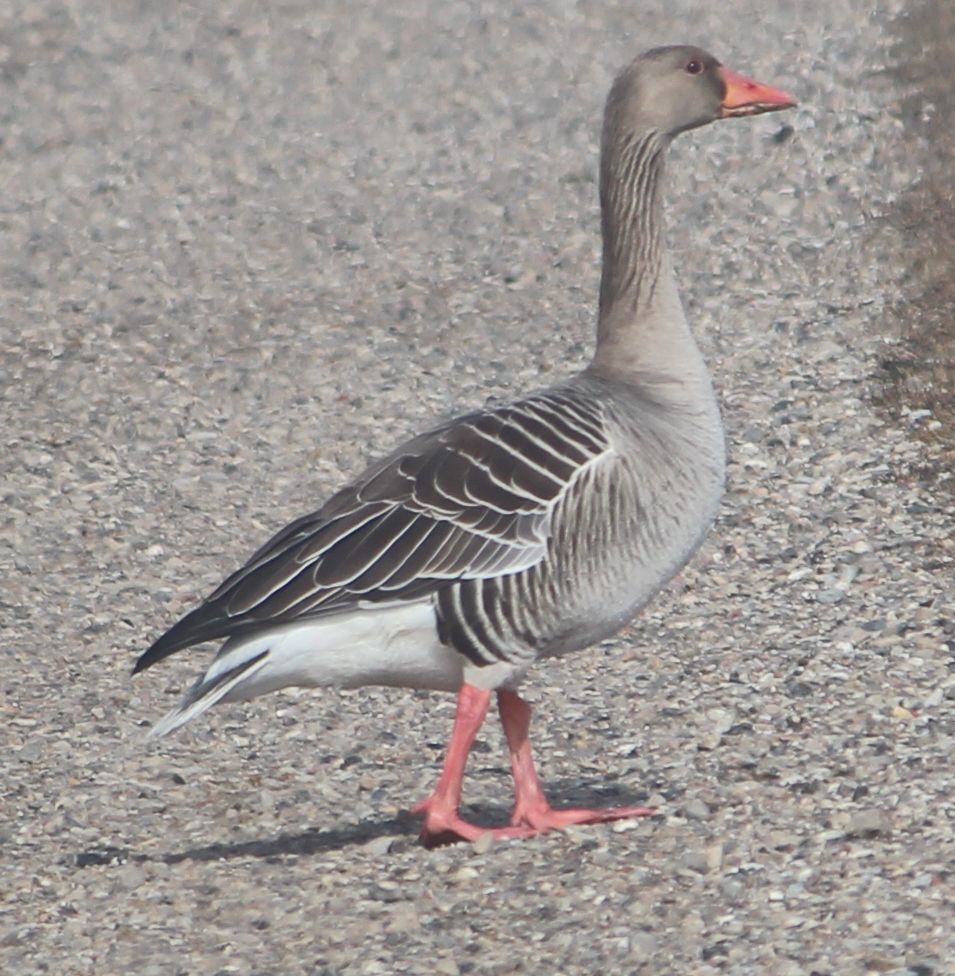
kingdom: Animalia
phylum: Chordata
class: Aves
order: Anseriformes
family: Anatidae
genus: Anser
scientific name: Anser anser
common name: Greylag goose
